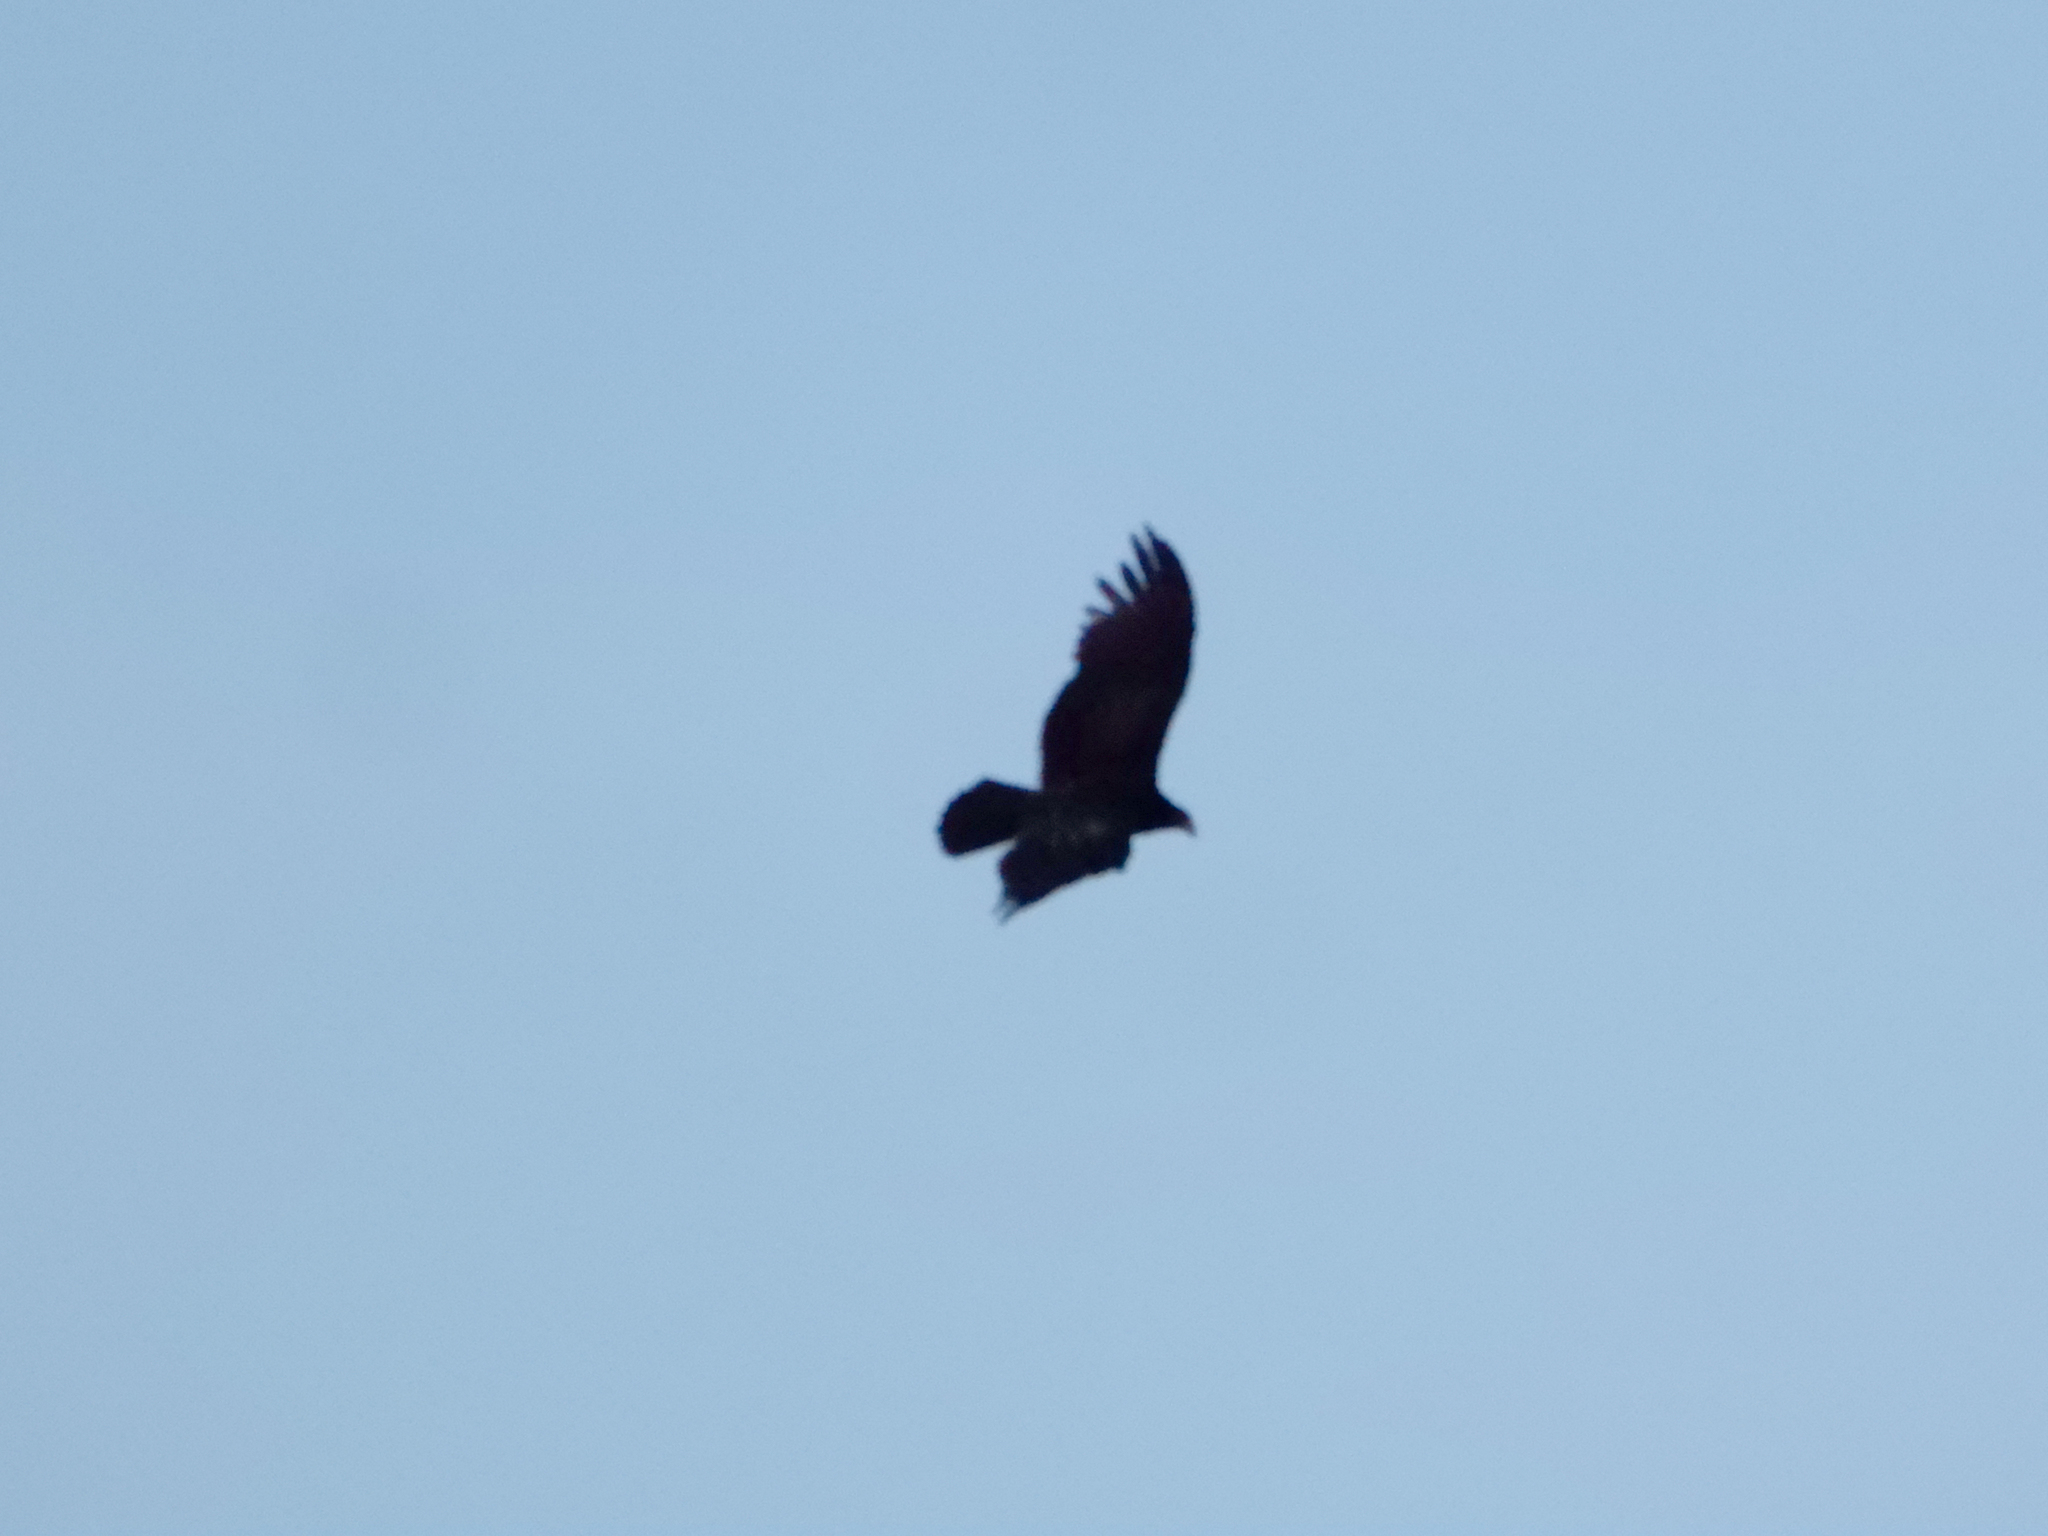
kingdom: Animalia
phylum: Chordata
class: Aves
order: Accipitriformes
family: Cathartidae
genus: Cathartes
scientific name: Cathartes aura
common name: Turkey vulture
